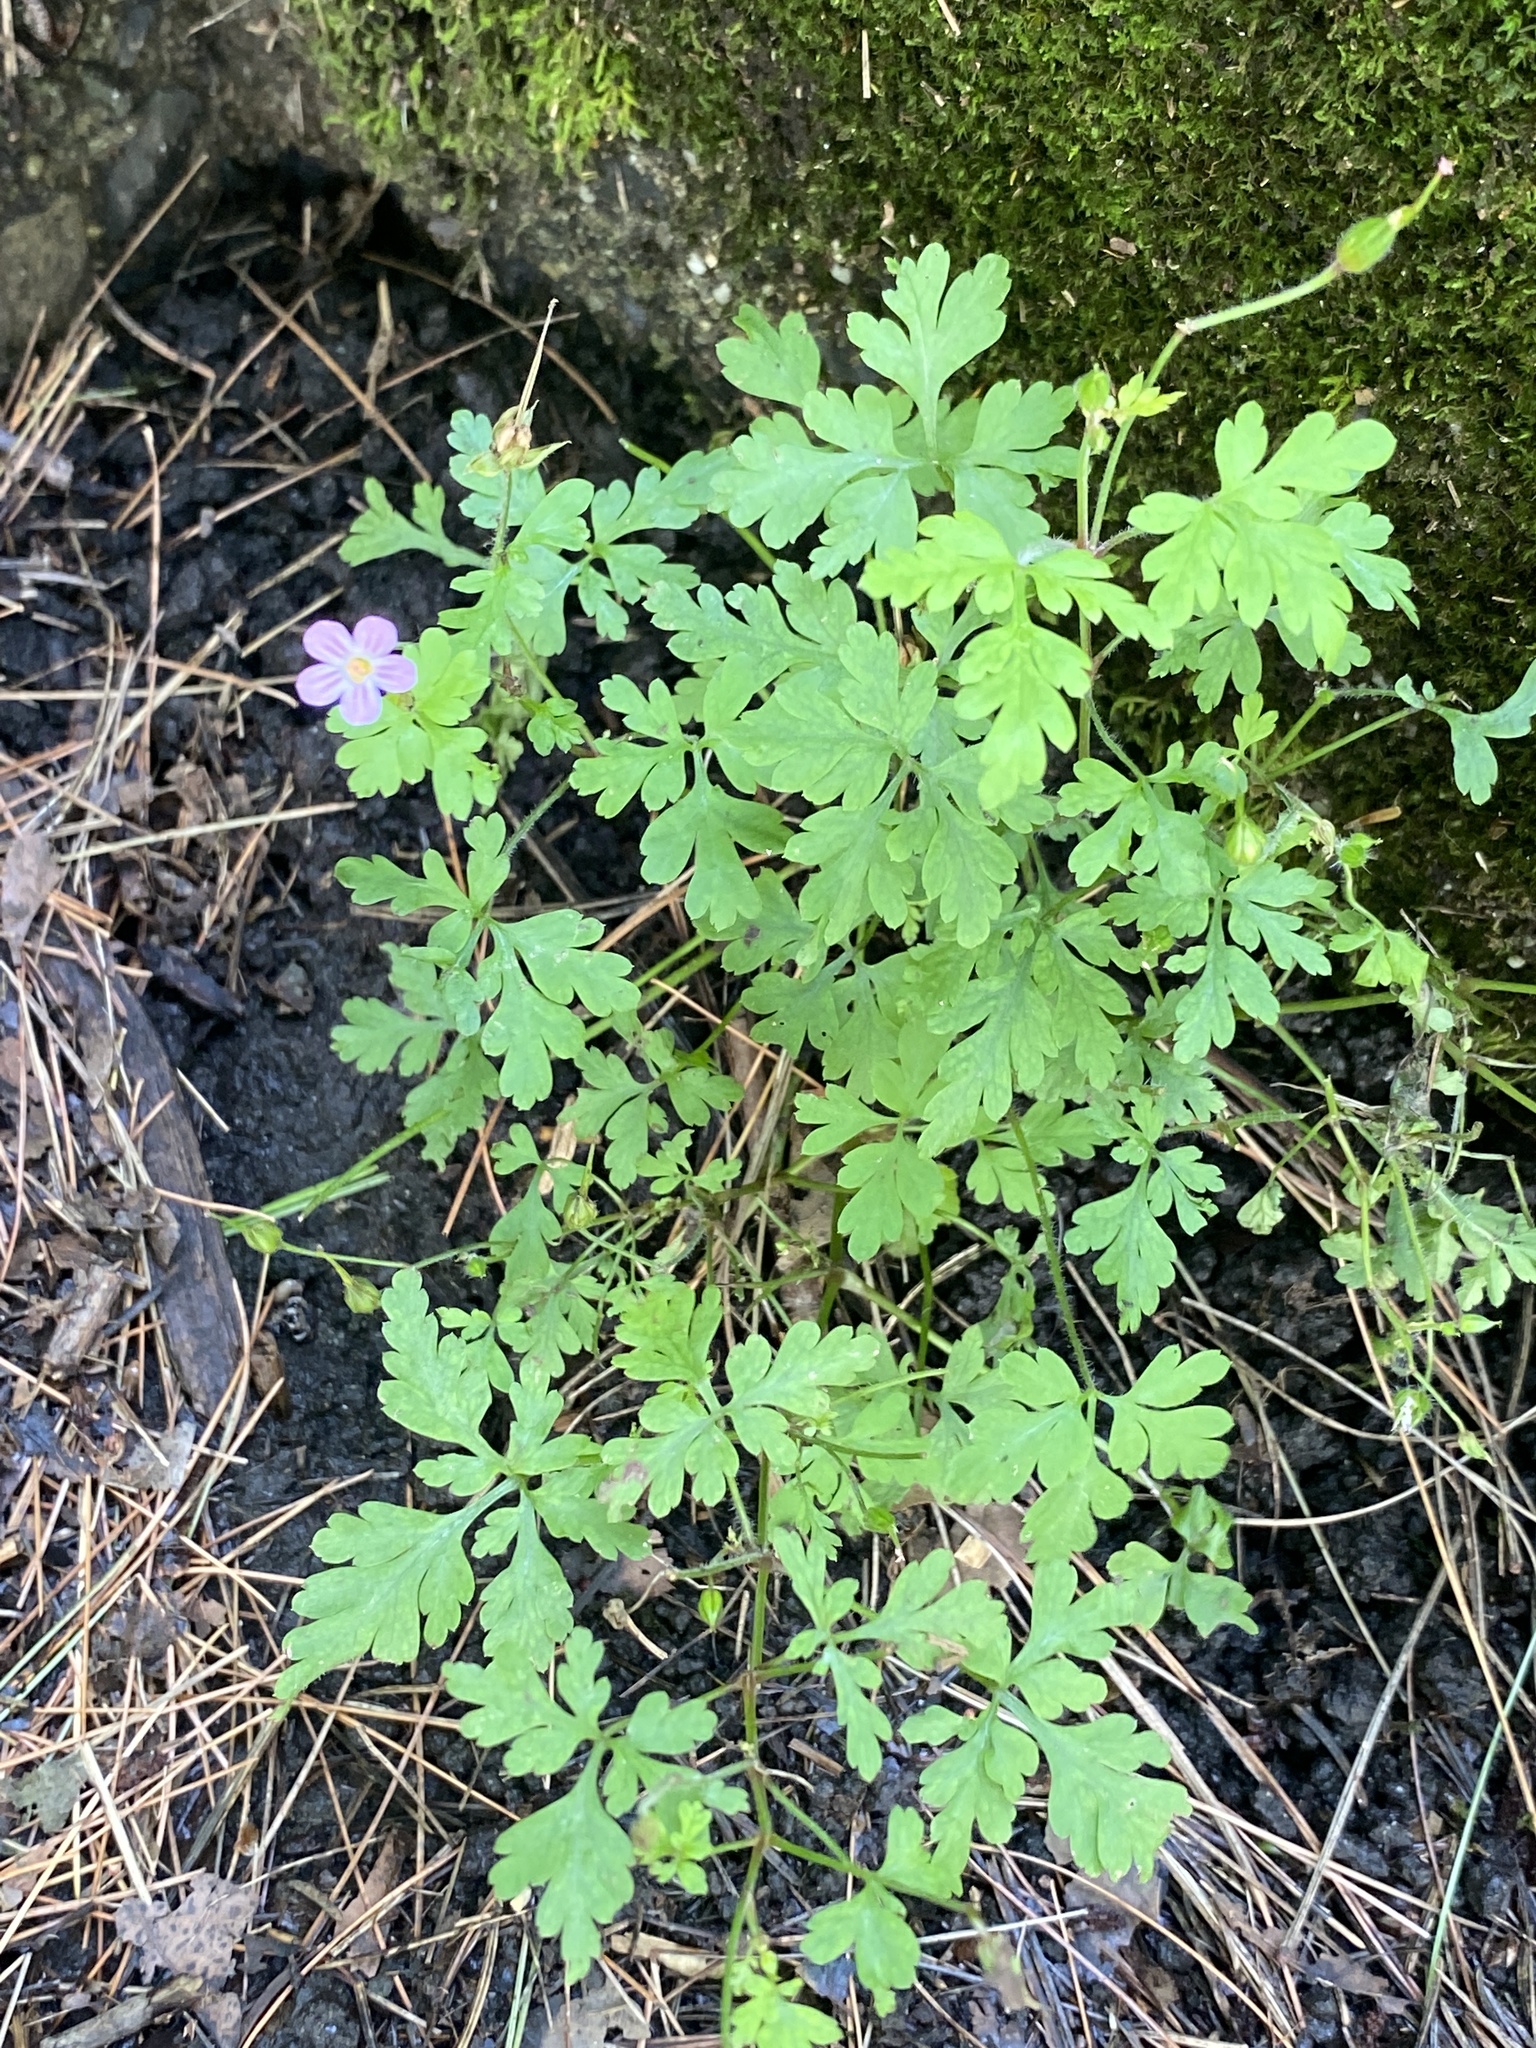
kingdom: Plantae
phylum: Tracheophyta
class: Magnoliopsida
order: Geraniales
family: Geraniaceae
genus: Geranium
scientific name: Geranium robertianum
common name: Herb-robert
